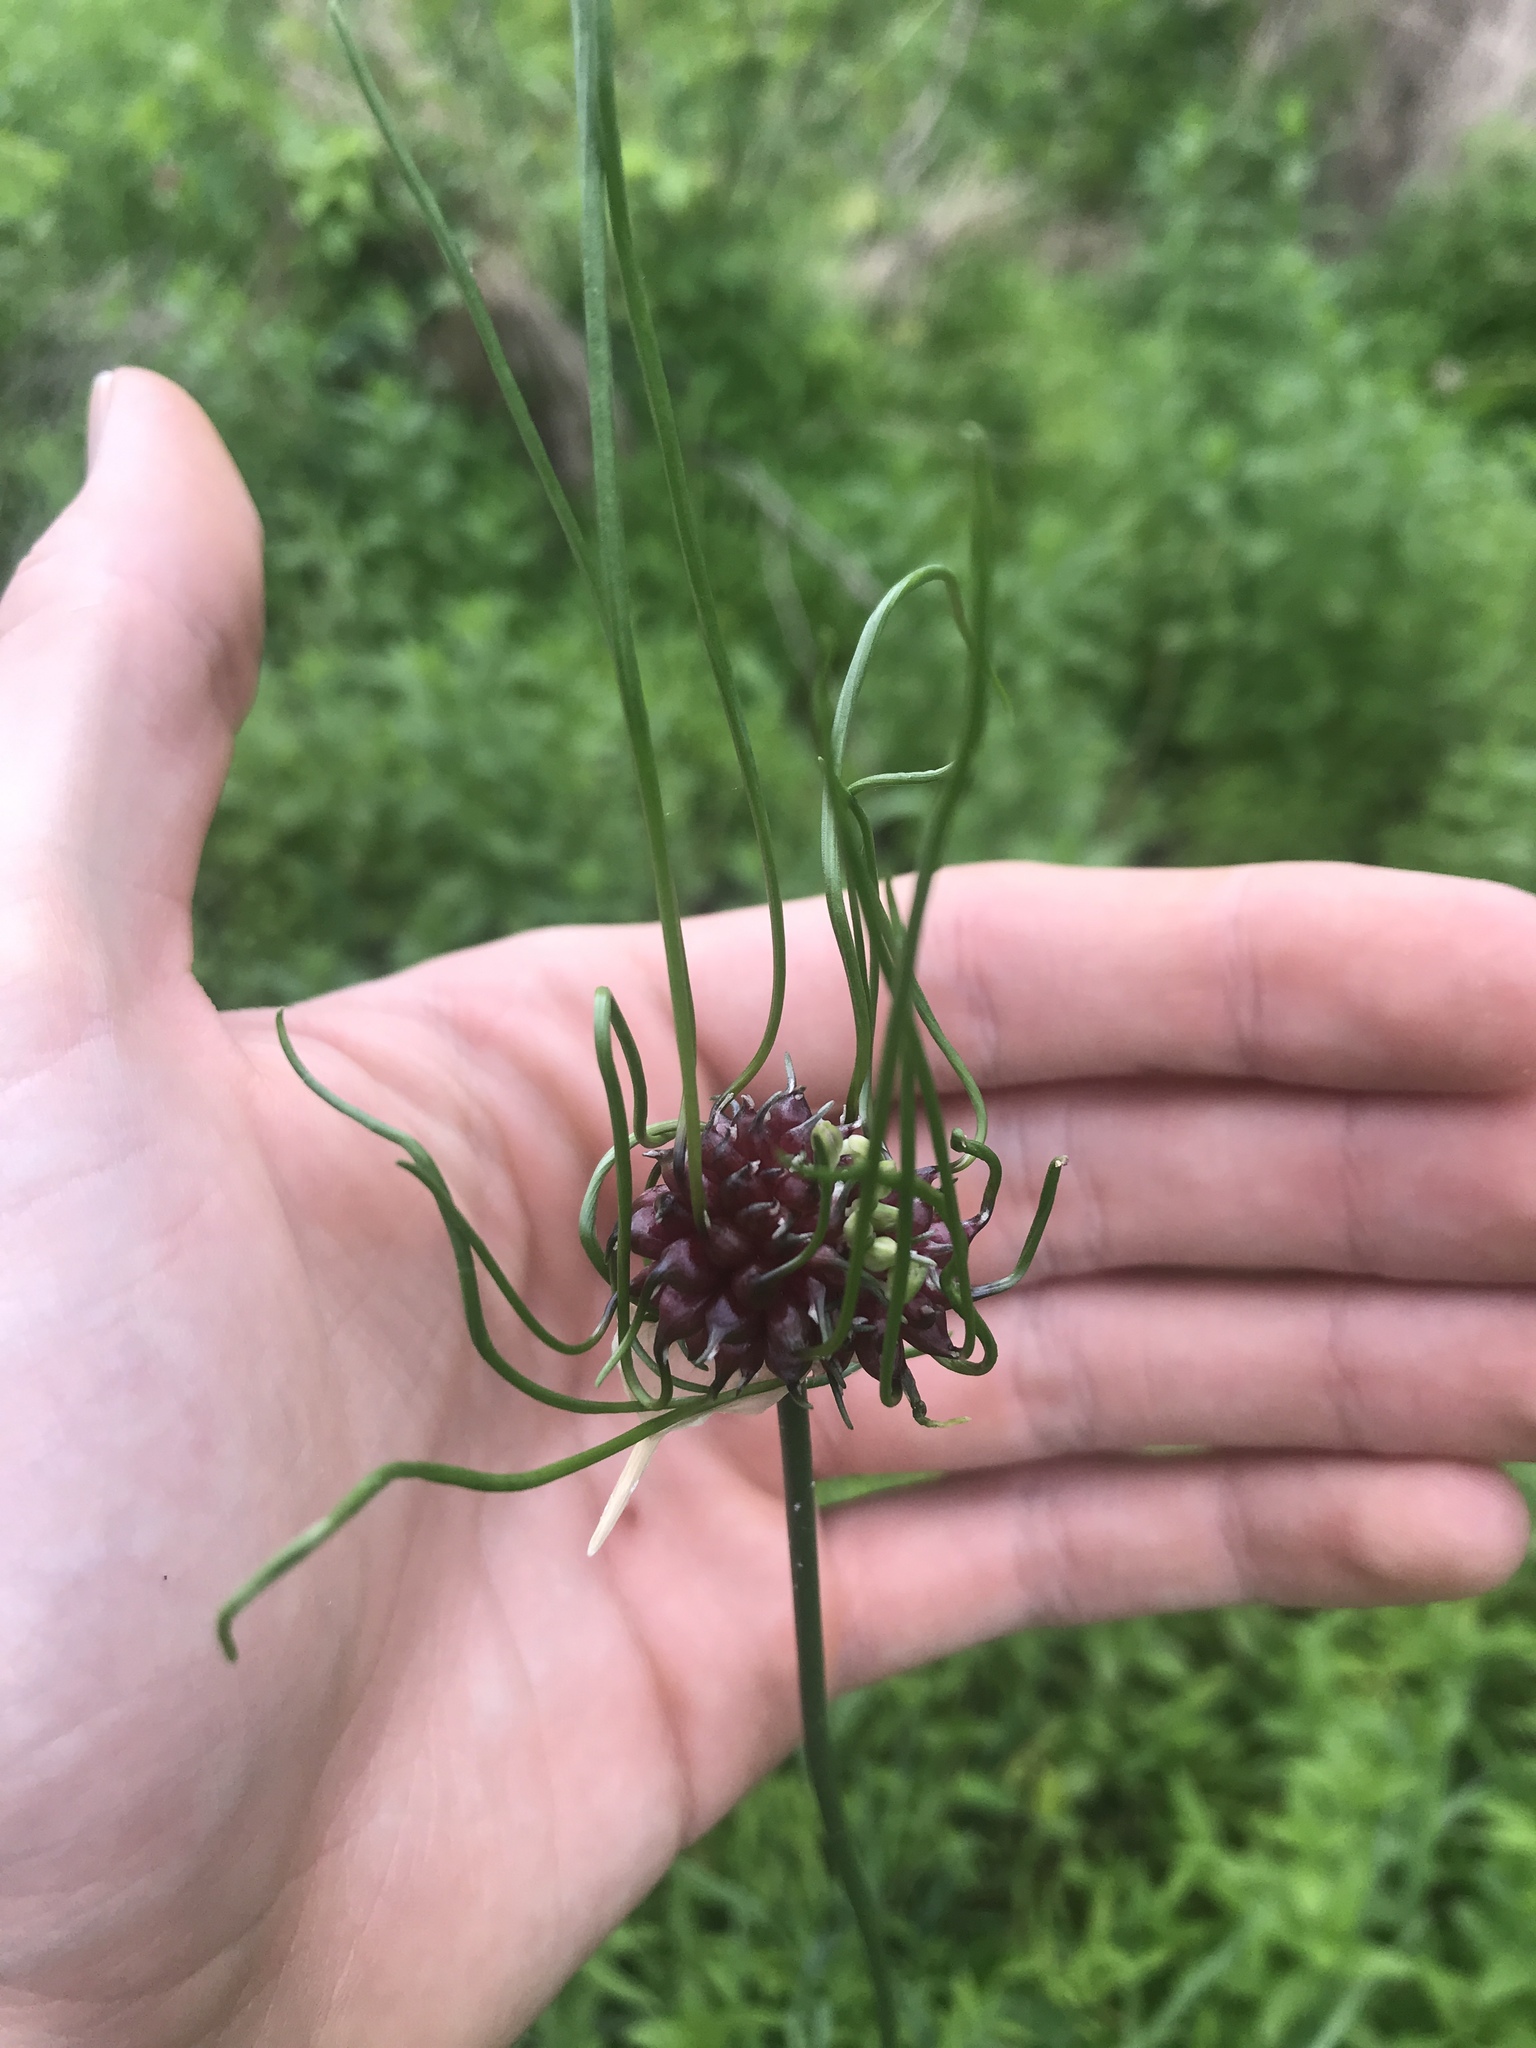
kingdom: Plantae
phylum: Tracheophyta
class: Liliopsida
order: Asparagales
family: Amaryllidaceae
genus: Allium
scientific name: Allium vineale
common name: Crow garlic
